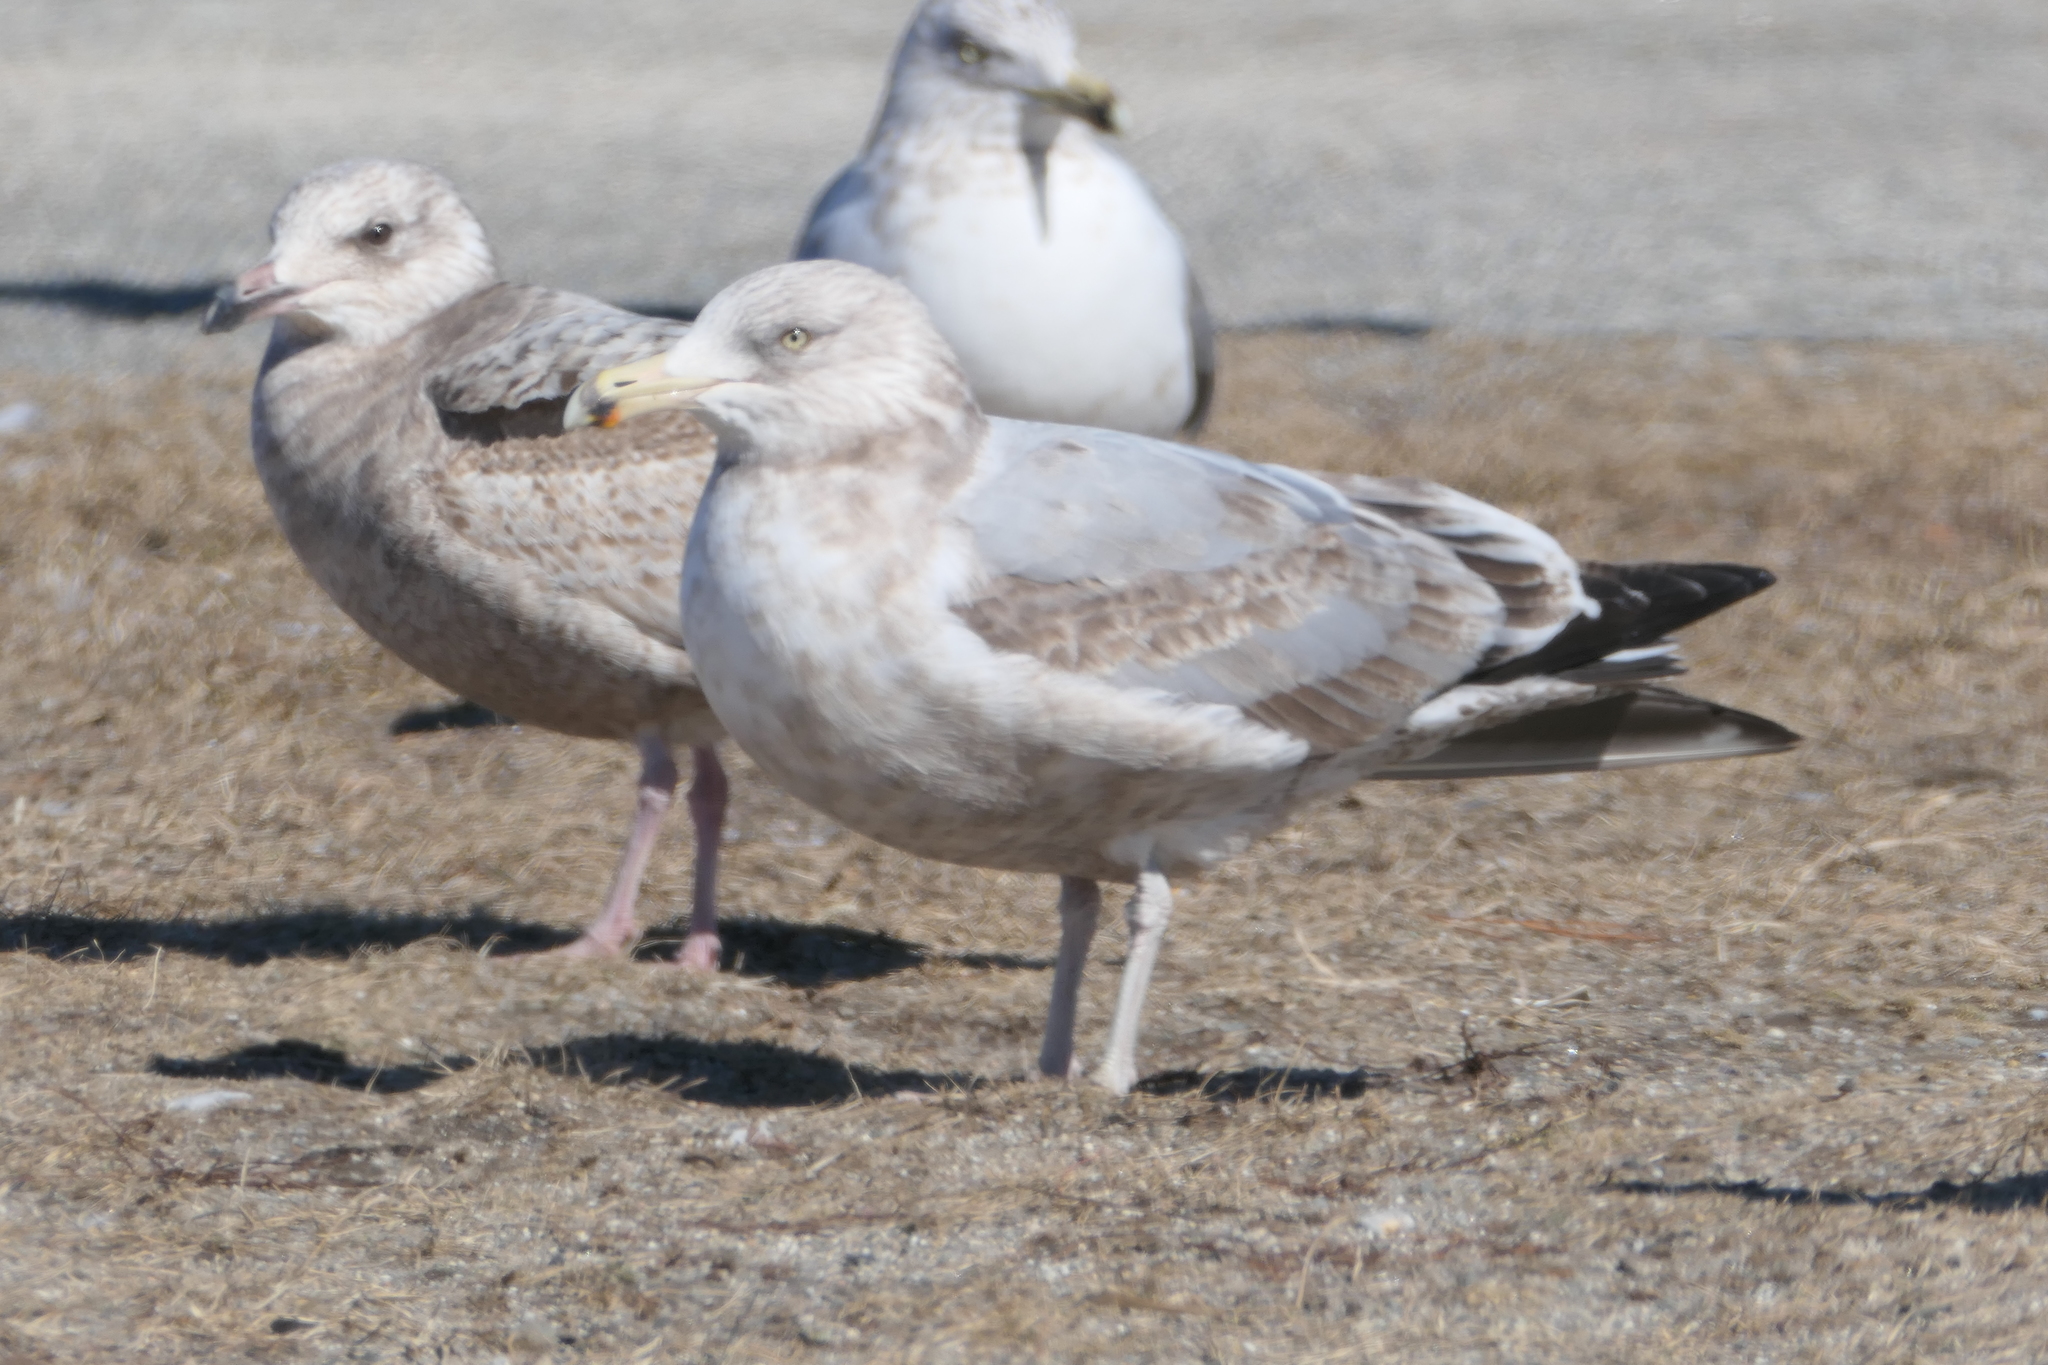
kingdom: Animalia
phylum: Chordata
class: Aves
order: Charadriiformes
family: Laridae
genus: Larus
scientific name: Larus argentatus
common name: Herring gull
